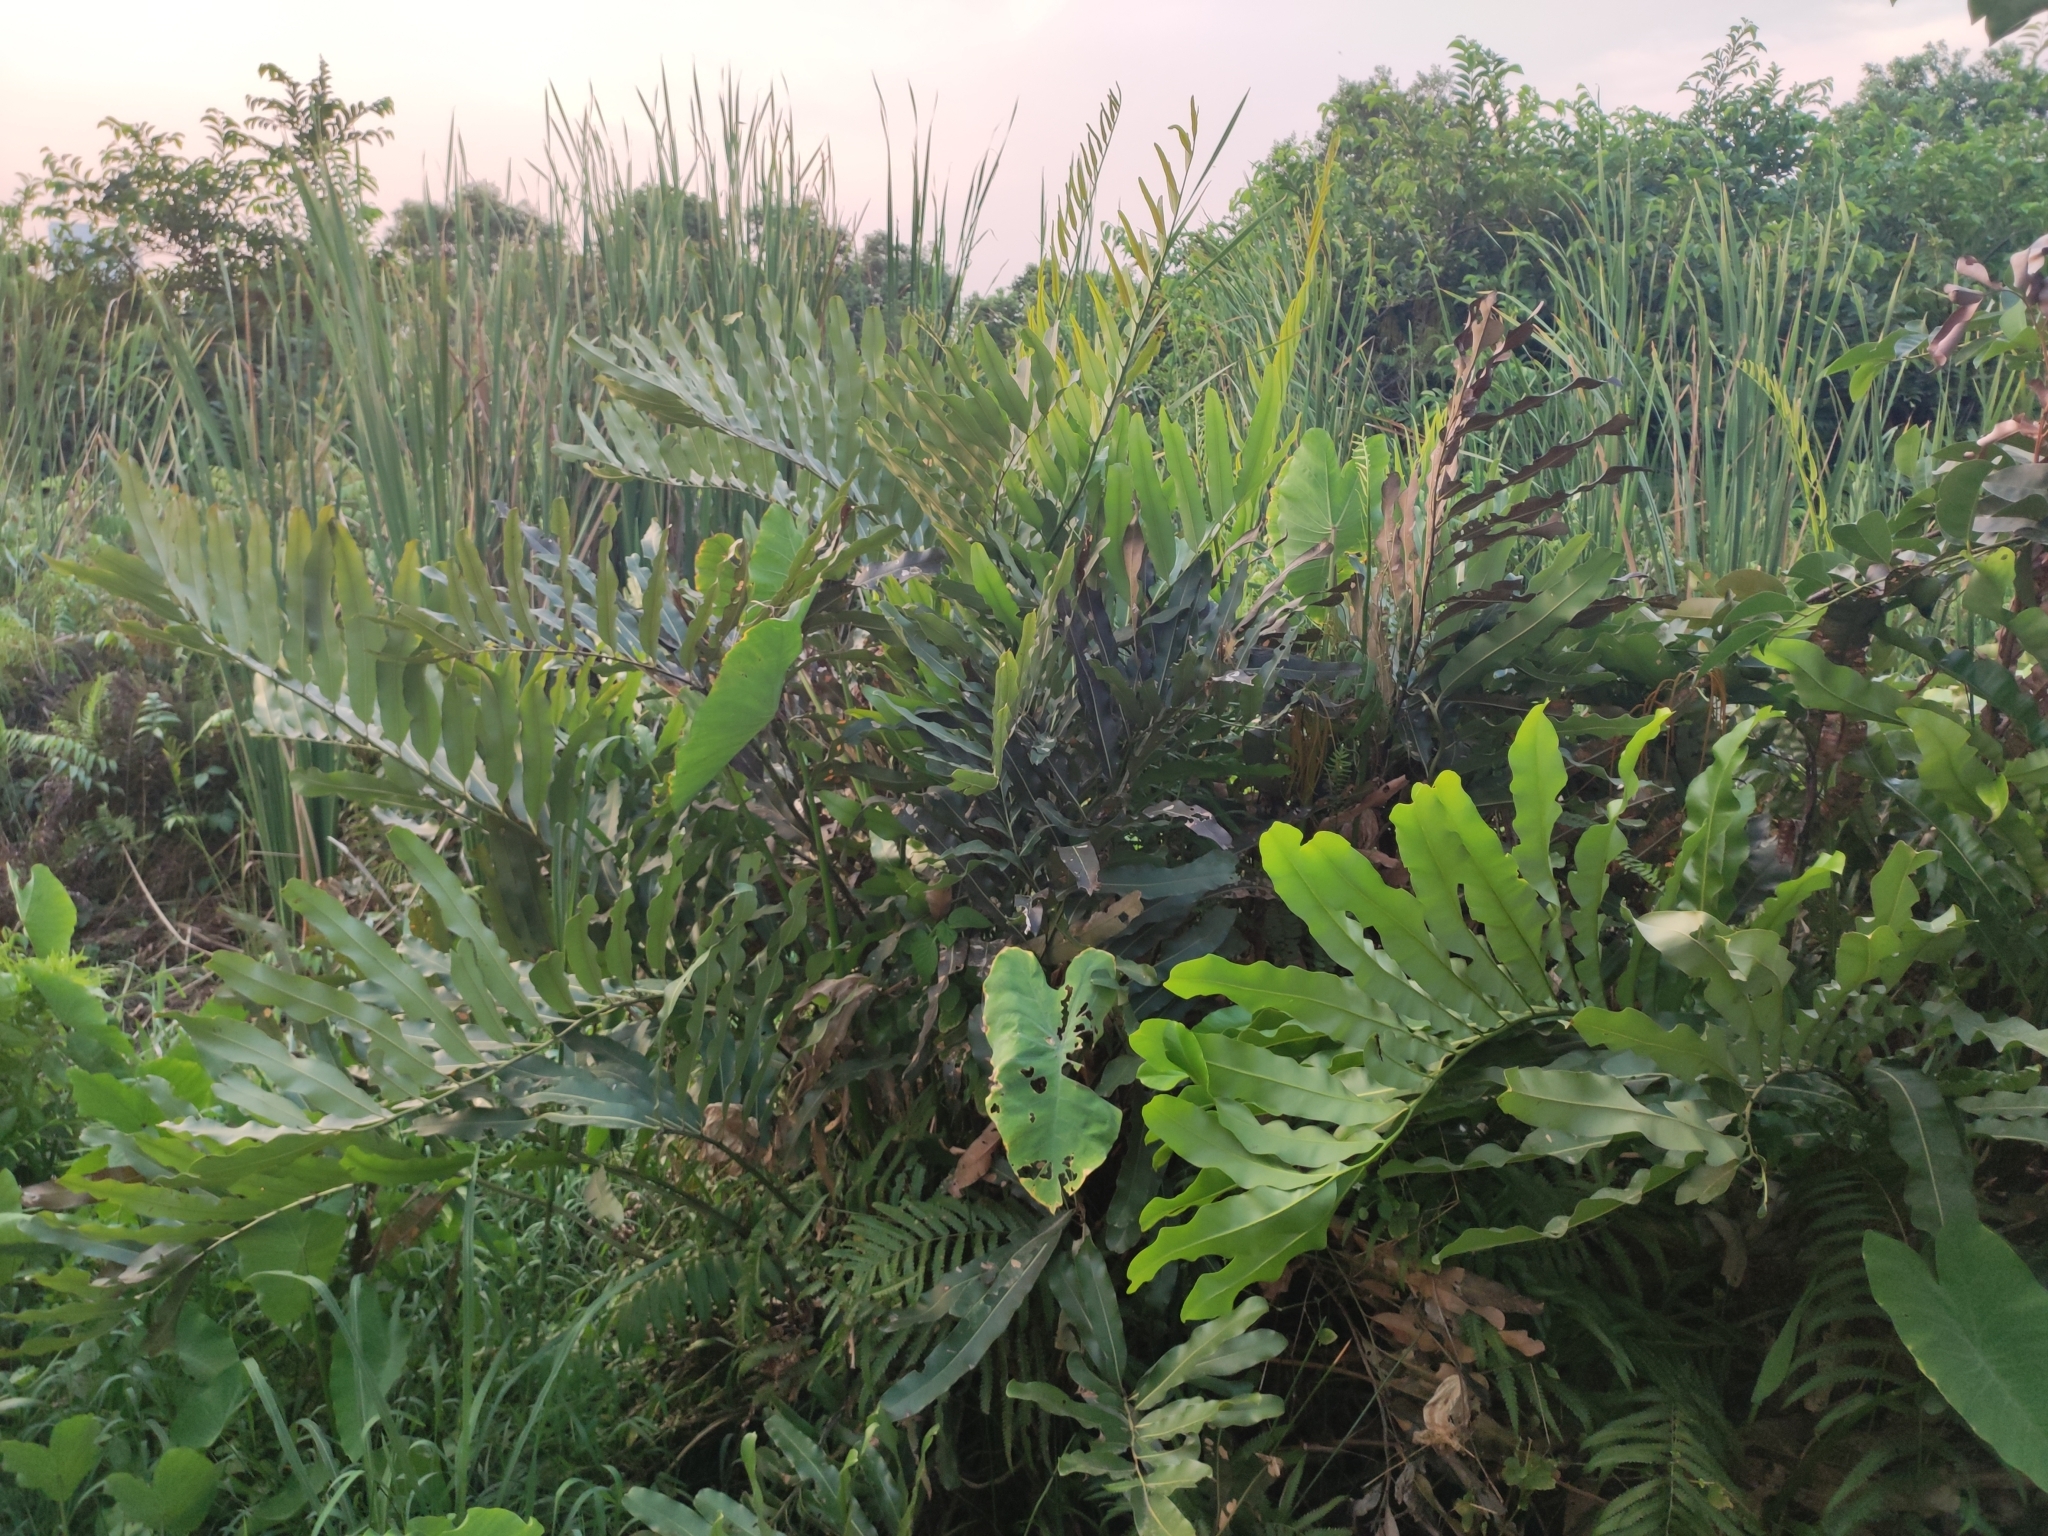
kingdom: Plantae
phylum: Tracheophyta
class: Polypodiopsida
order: Polypodiales
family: Pteridaceae
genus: Acrostichum
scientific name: Acrostichum aureum
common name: Leather fern
